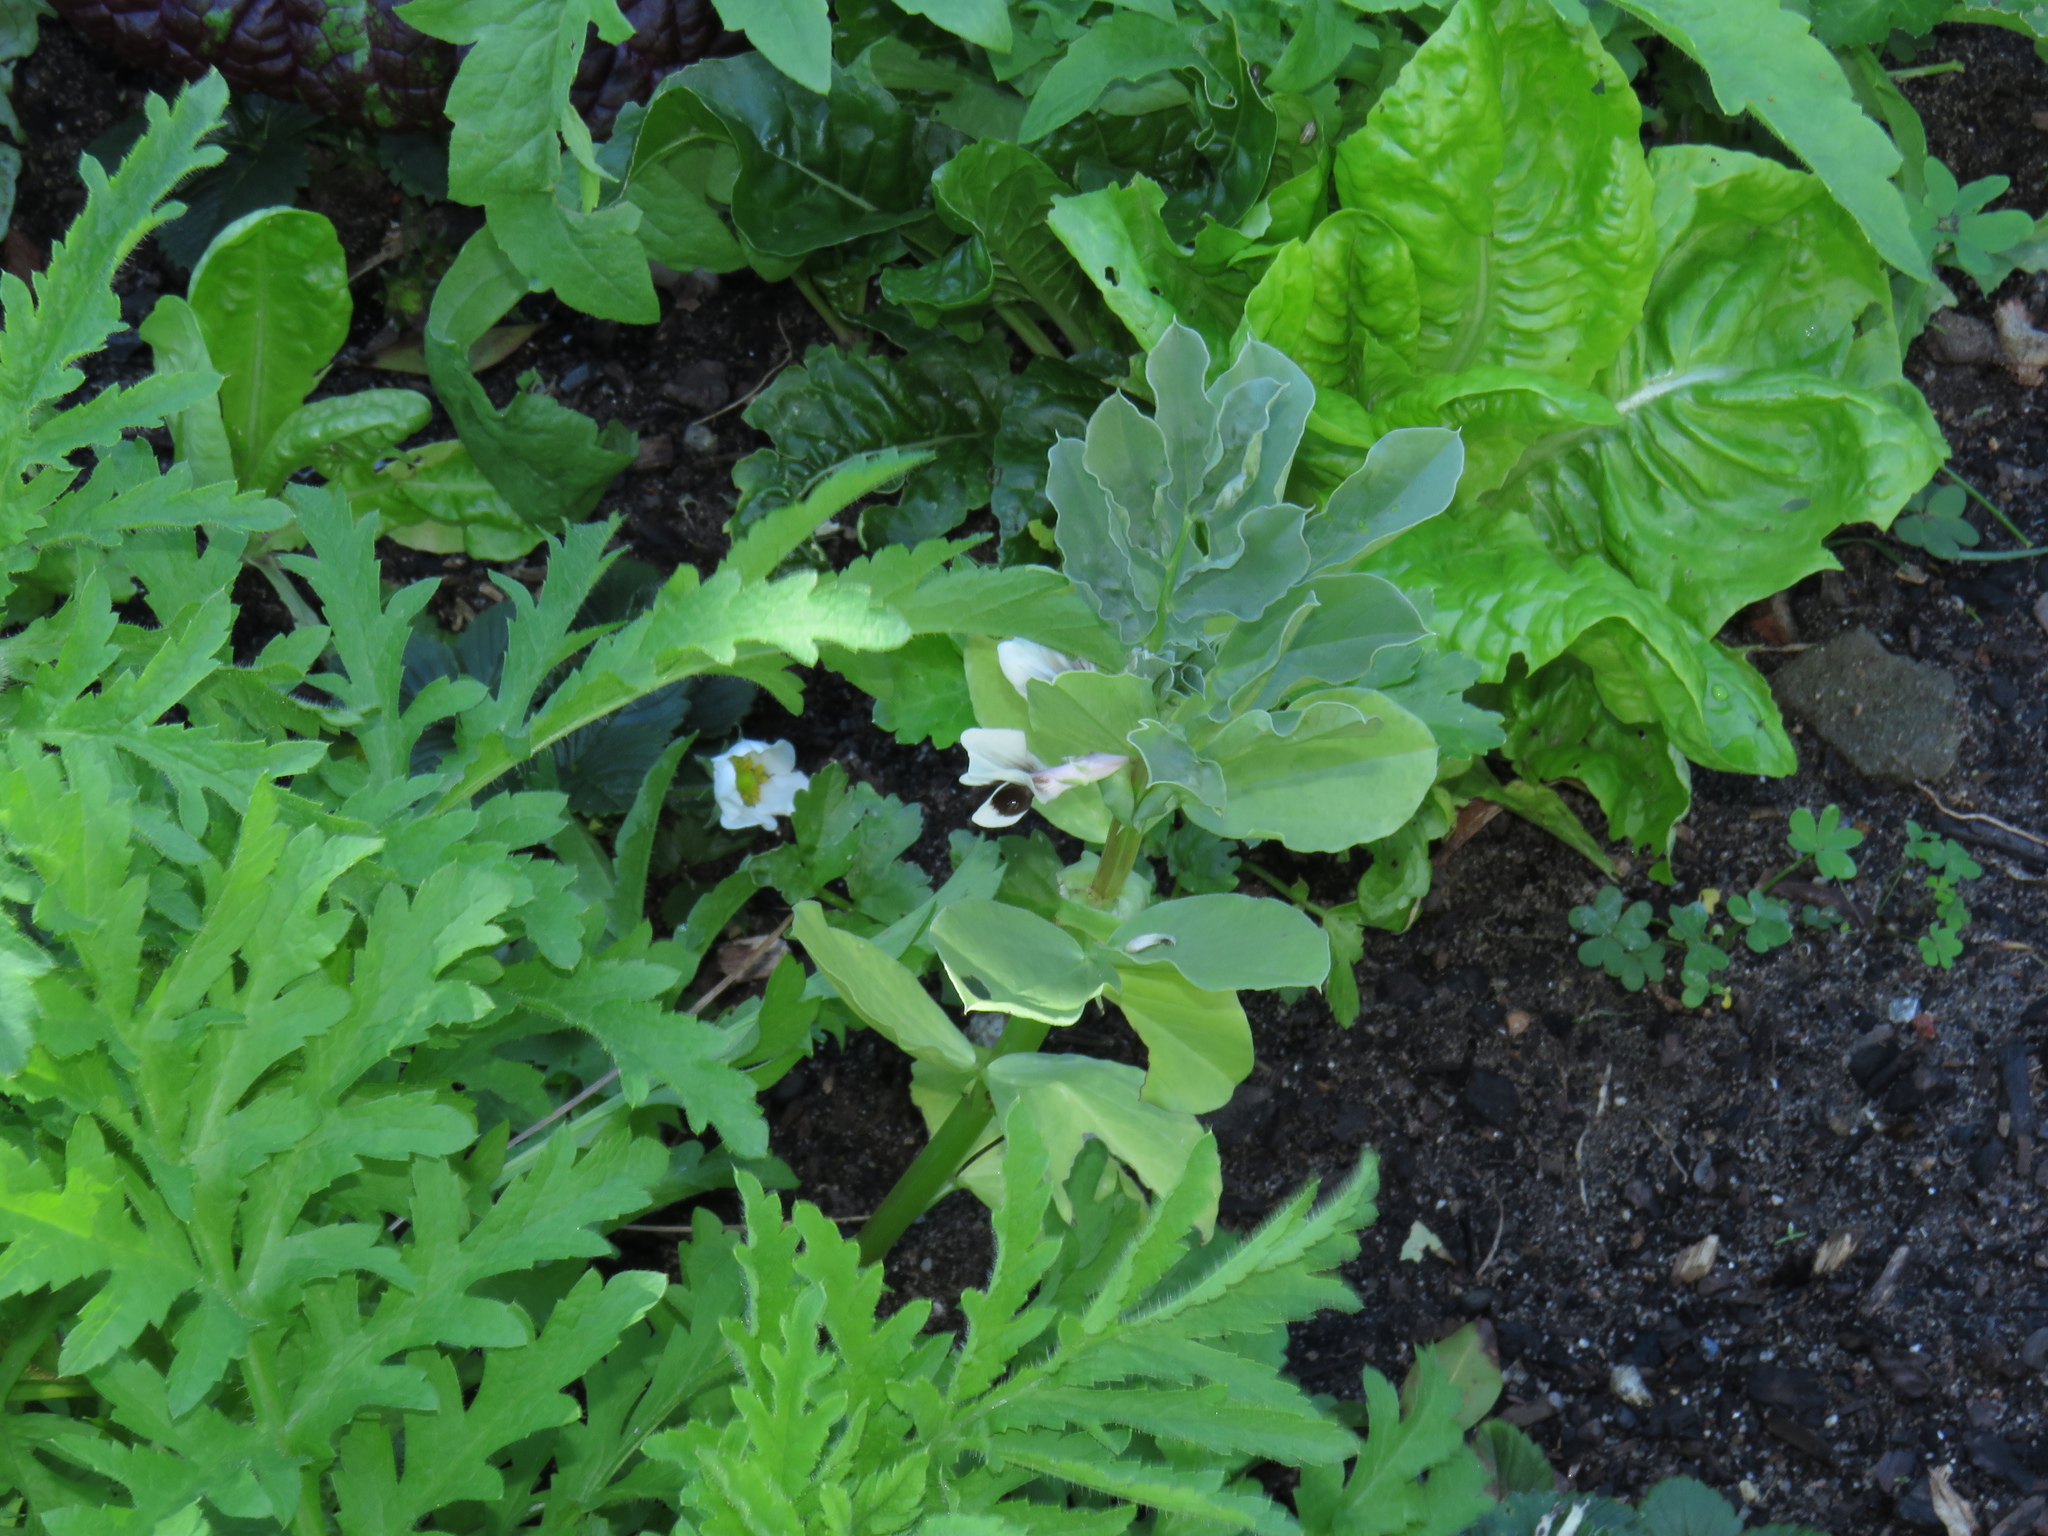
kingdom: Plantae
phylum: Tracheophyta
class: Magnoliopsida
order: Fabales
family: Fabaceae
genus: Vicia
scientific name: Vicia faba
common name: Broad bean
